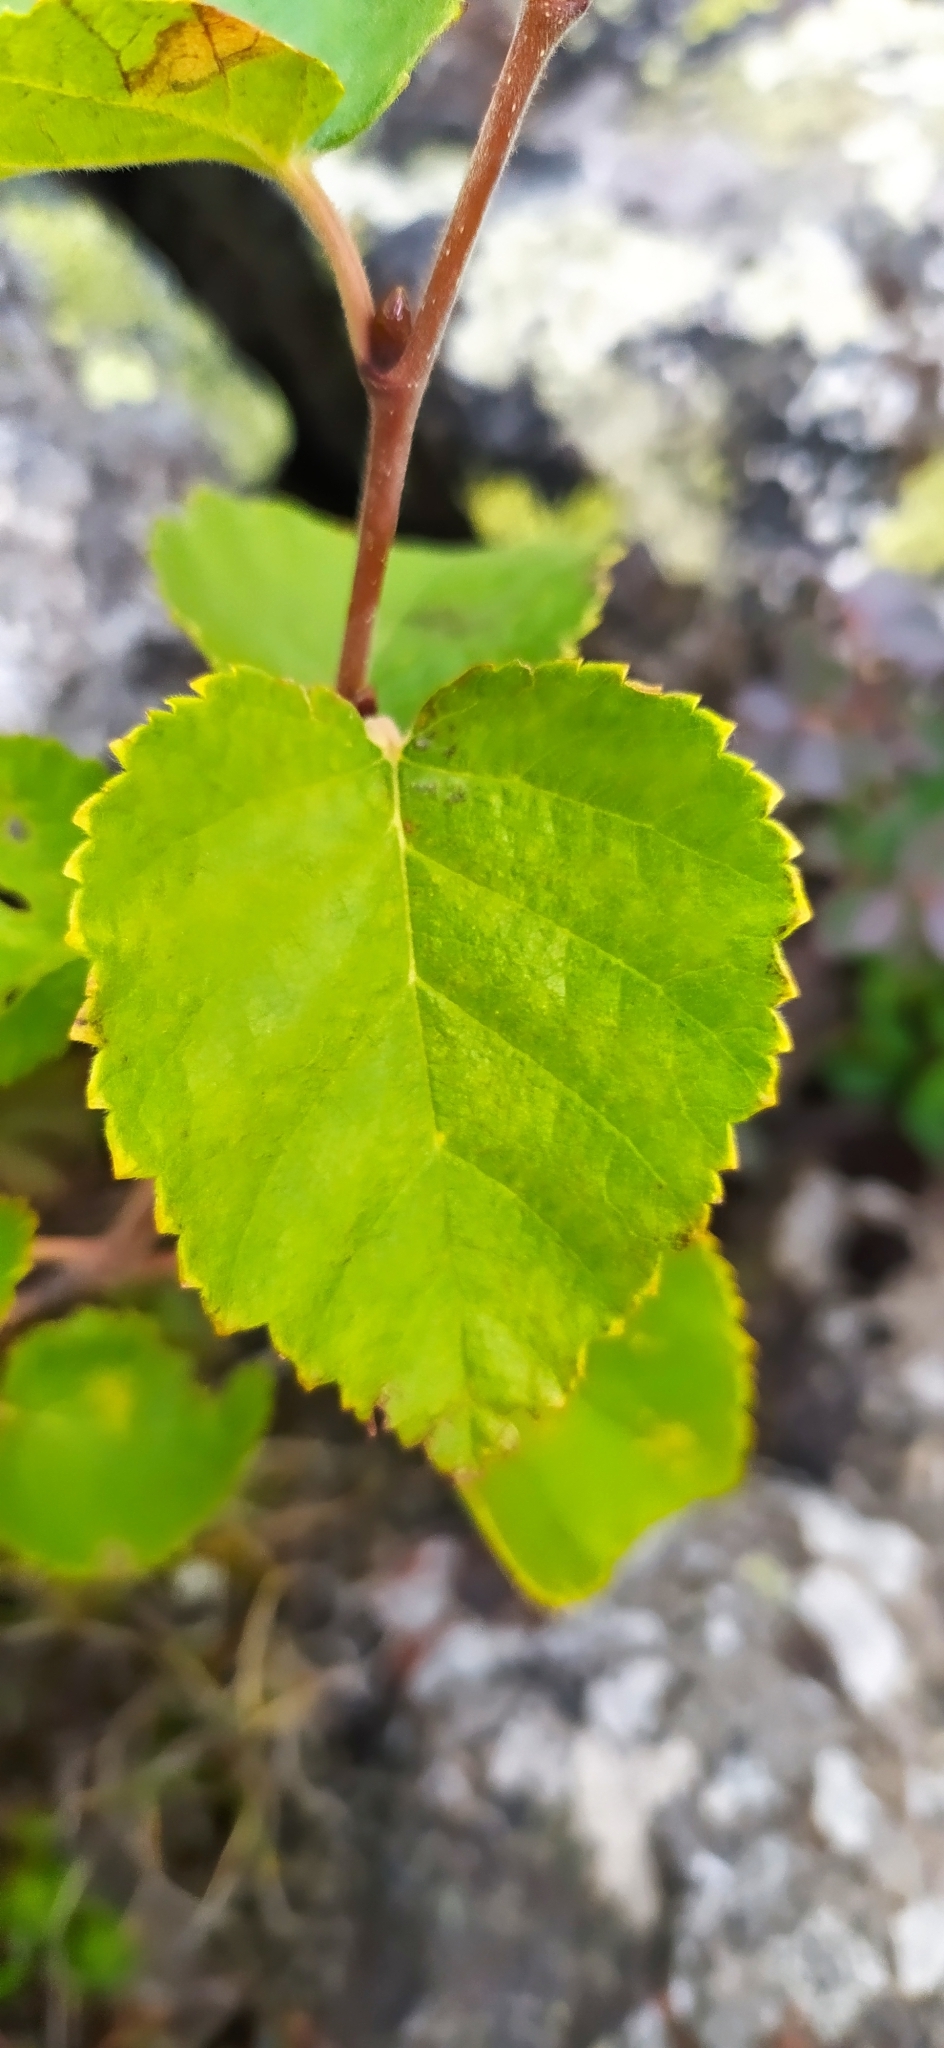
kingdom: Plantae
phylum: Tracheophyta
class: Magnoliopsida
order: Fagales
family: Betulaceae
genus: Betula
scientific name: Betula pubescens
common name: Downy birch
